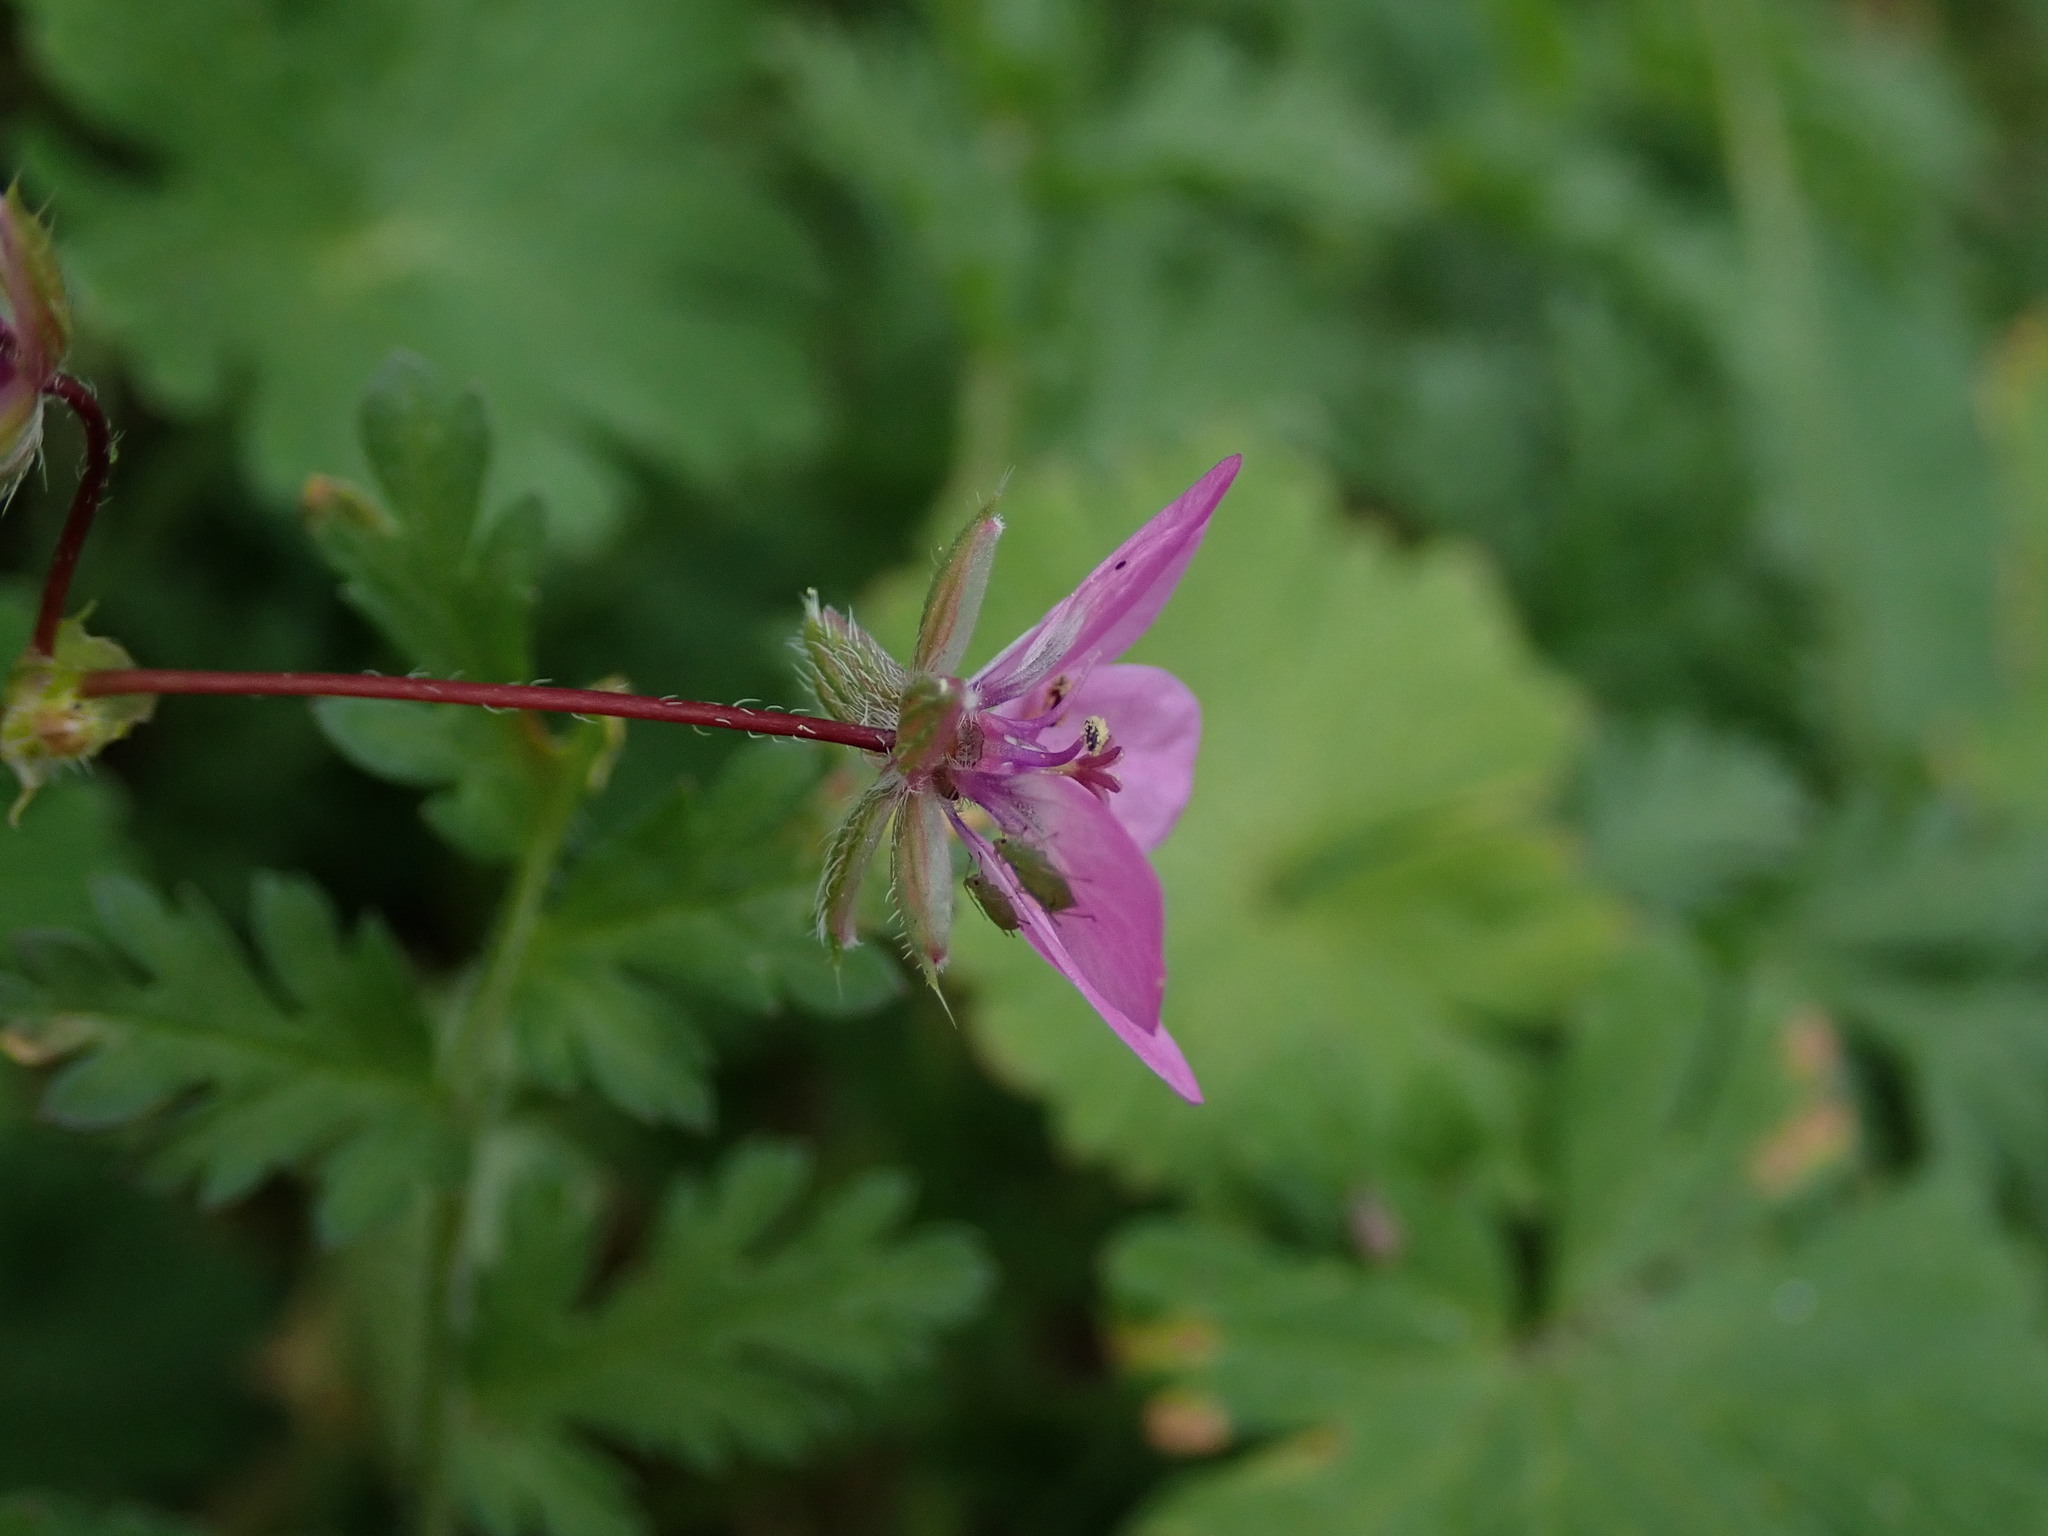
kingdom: Plantae
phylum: Tracheophyta
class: Magnoliopsida
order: Geraniales
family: Geraniaceae
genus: Erodium
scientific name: Erodium cicutarium
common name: Common stork's-bill
